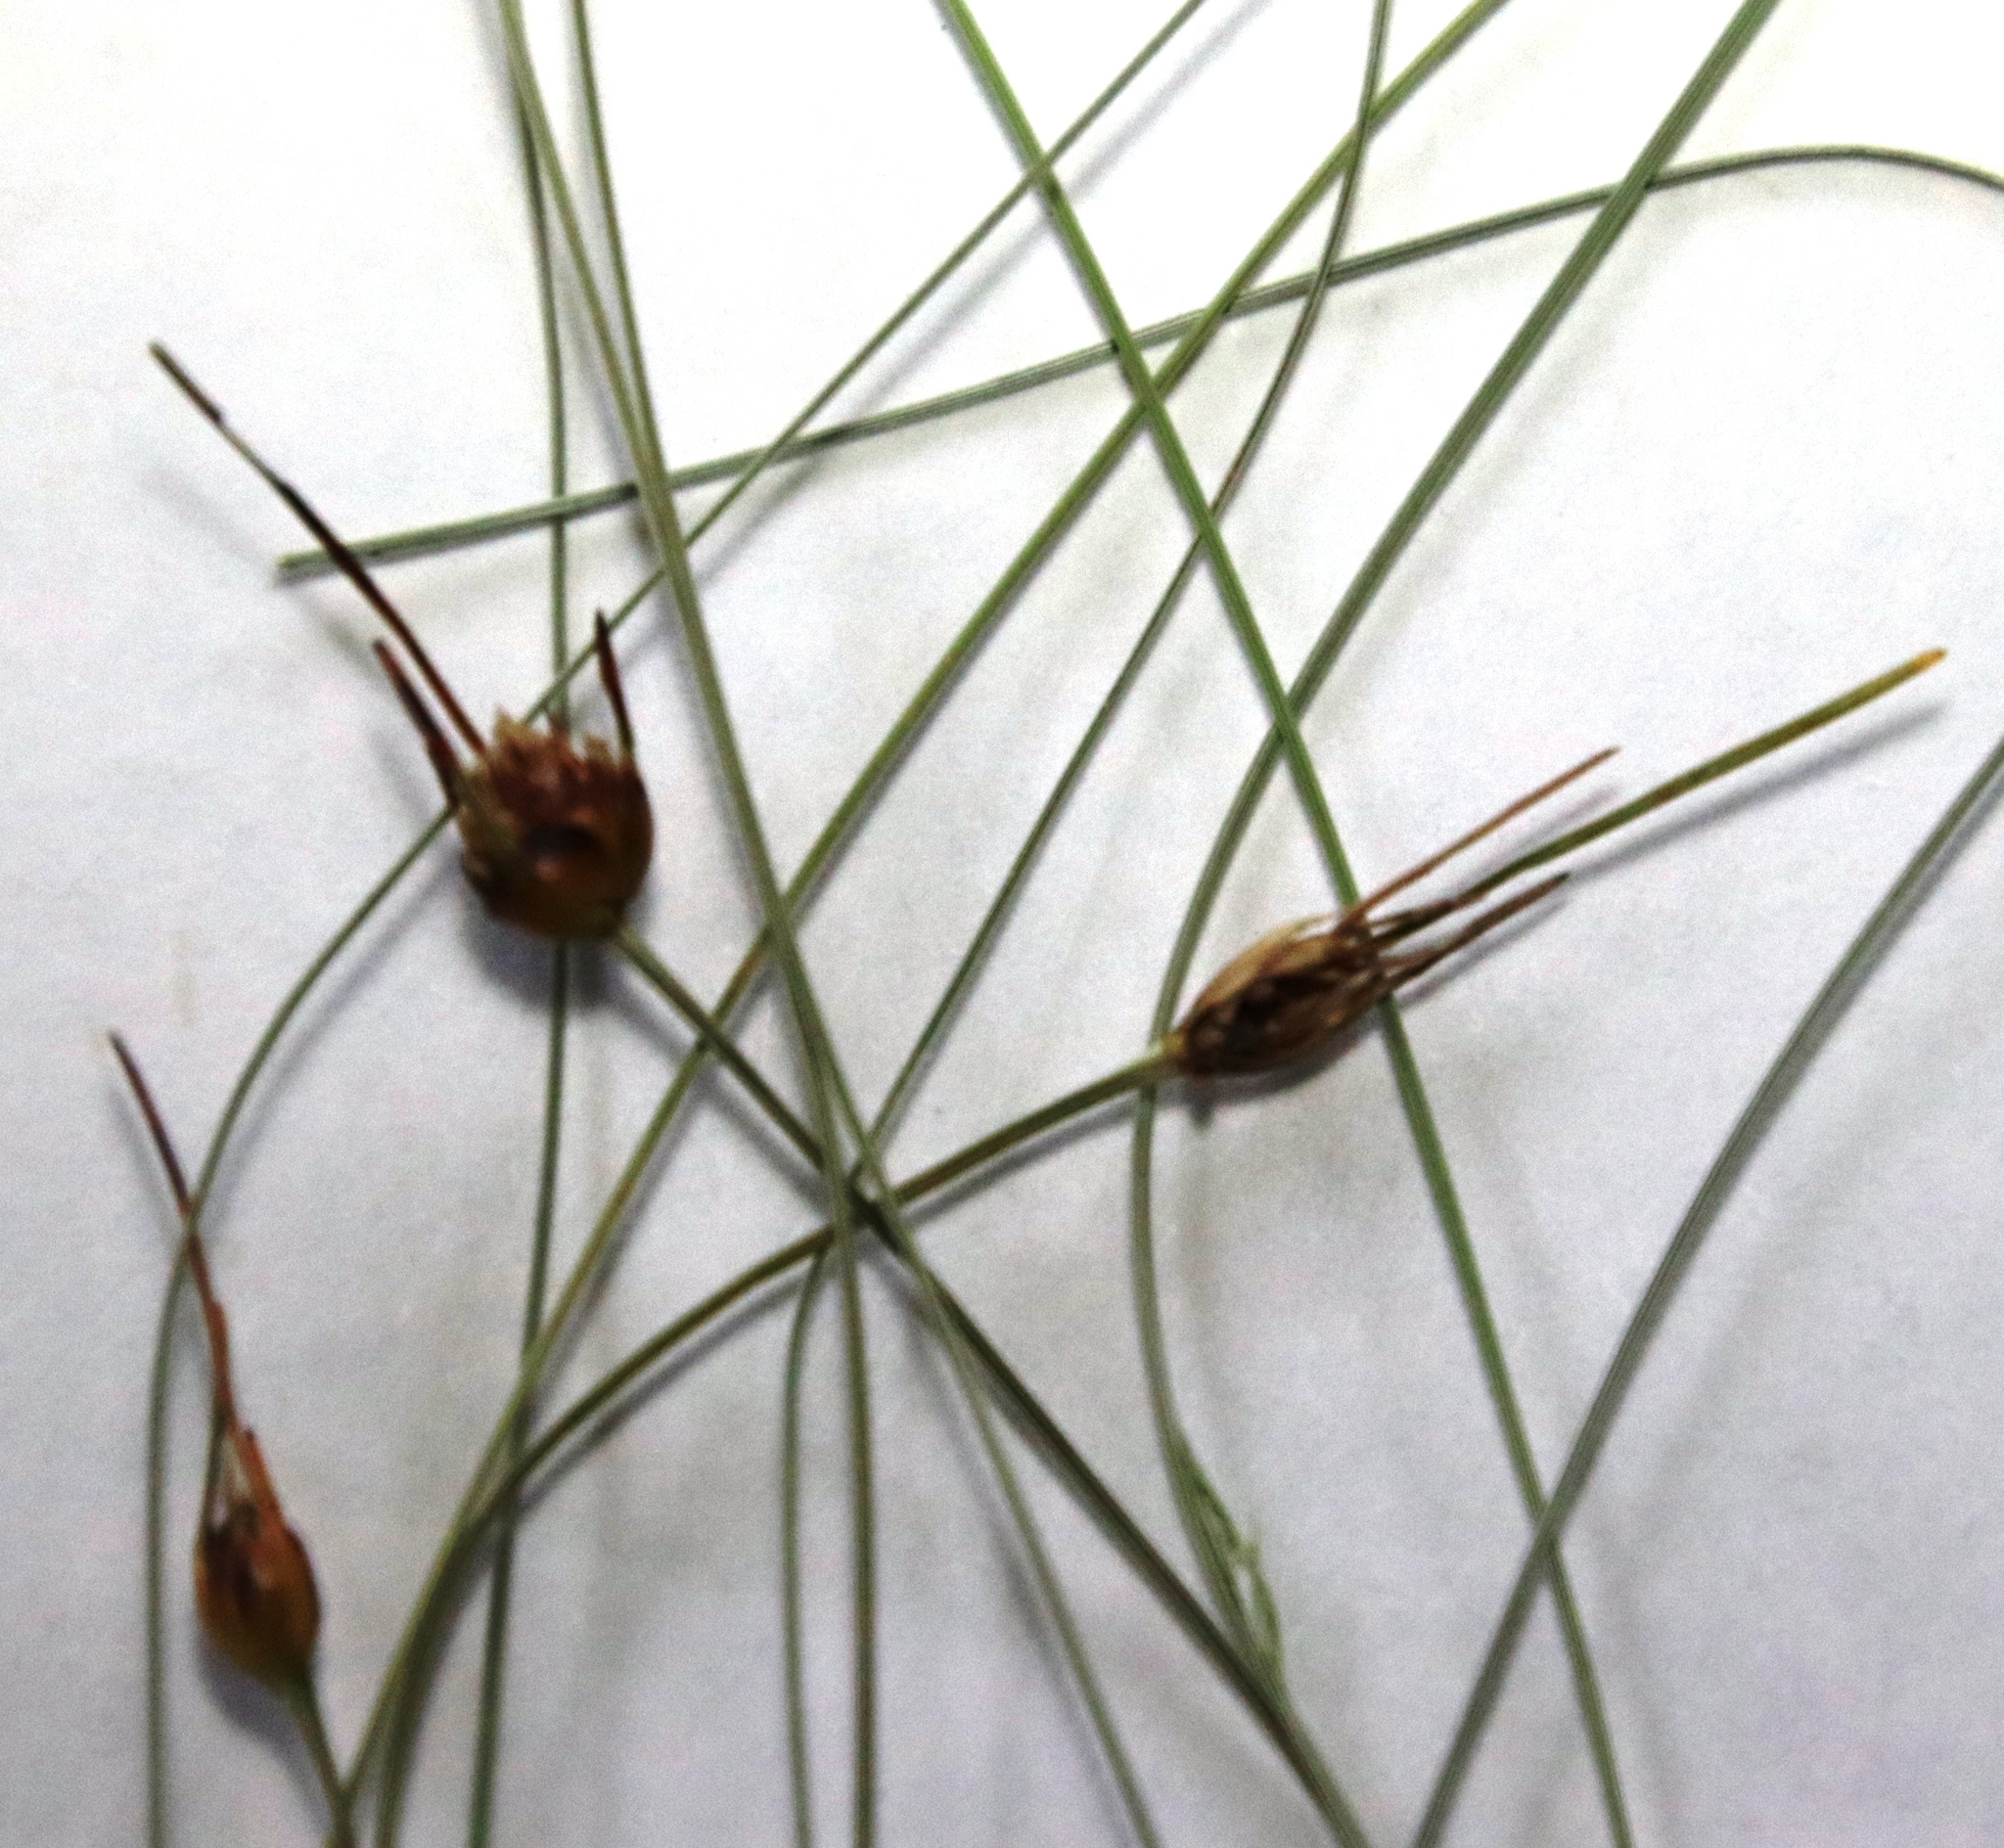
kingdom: Plantae
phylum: Tracheophyta
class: Liliopsida
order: Poales
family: Cyperaceae
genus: Ficinia
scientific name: Ficinia capitella
